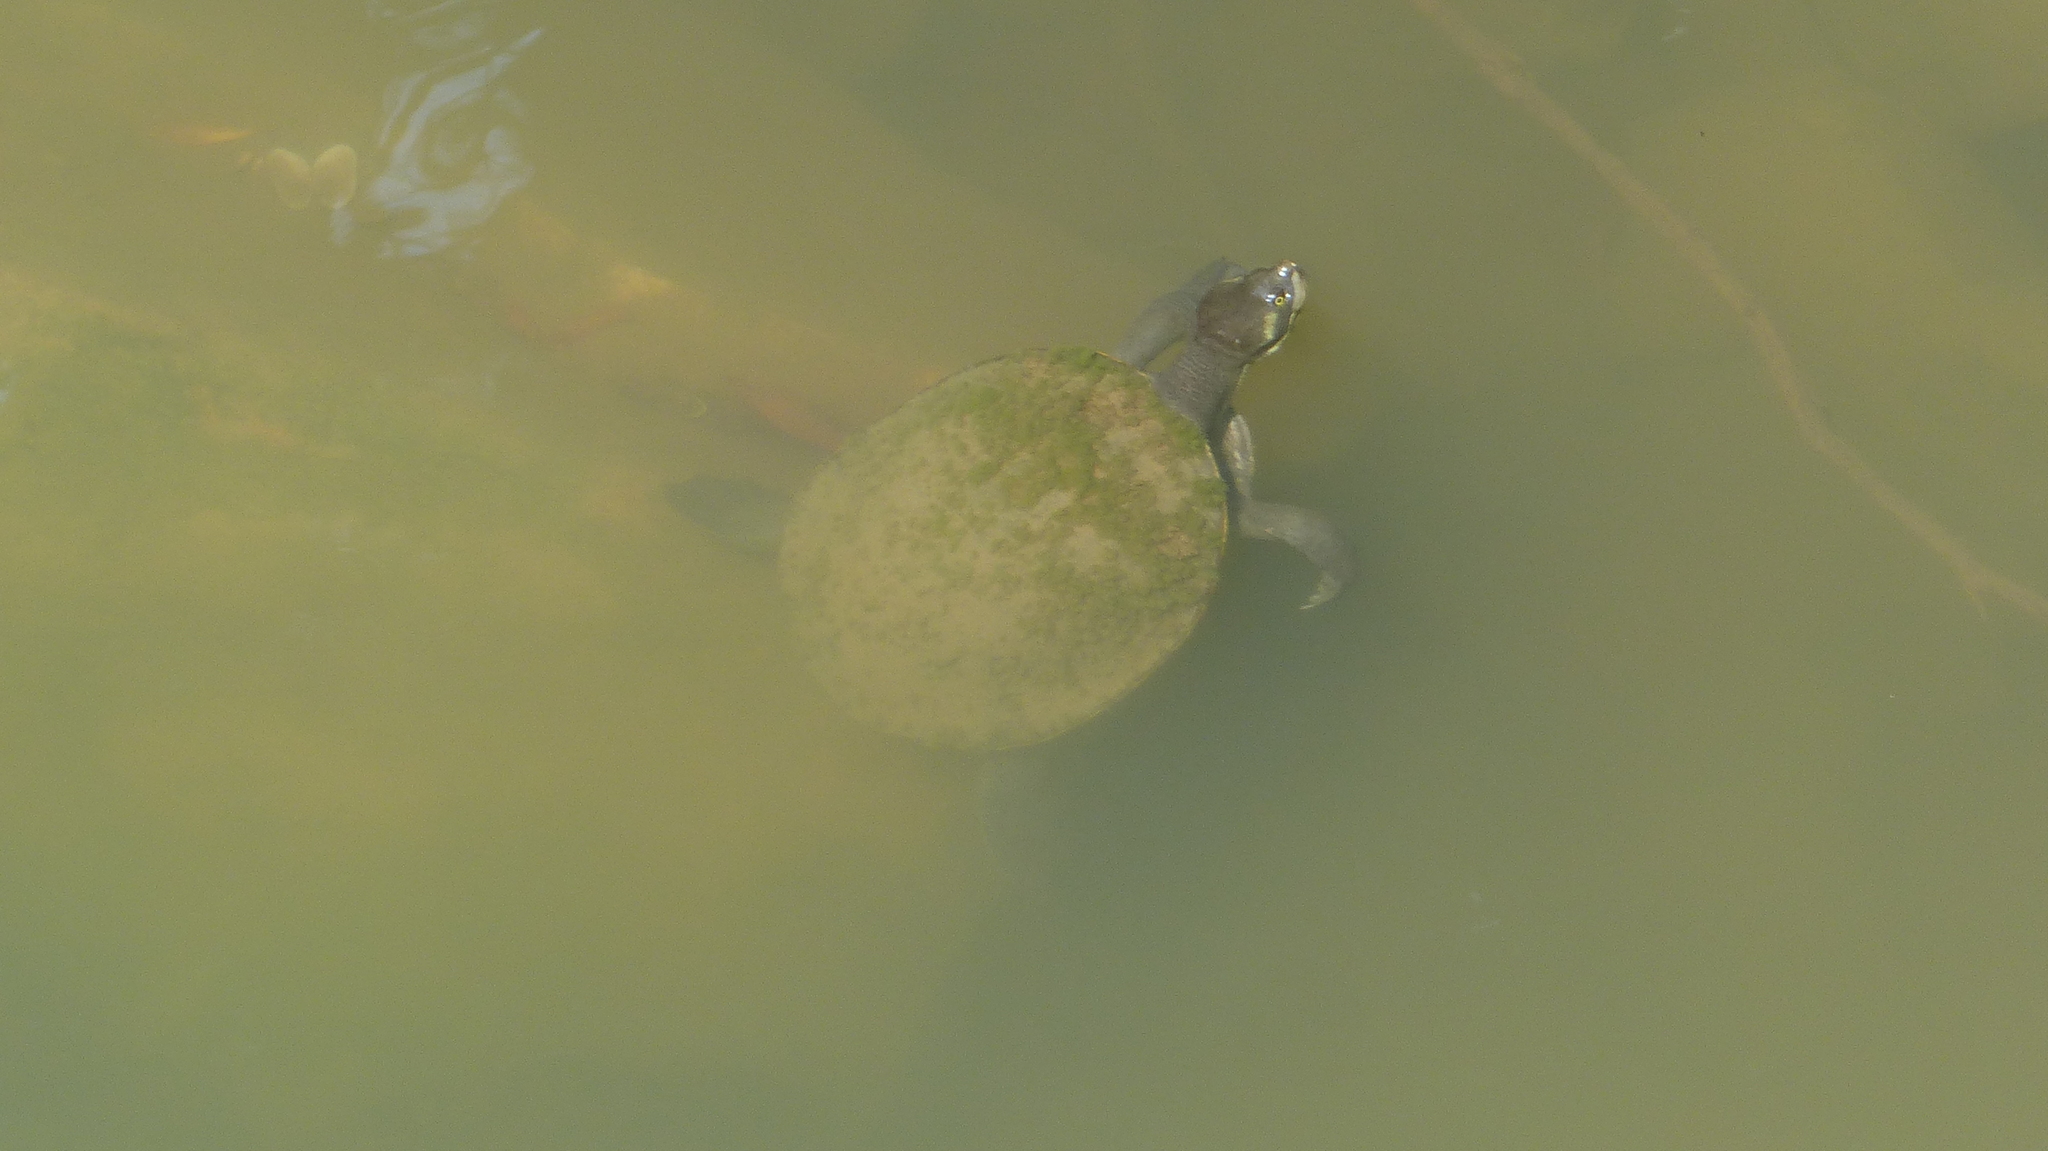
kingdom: Animalia
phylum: Chordata
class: Testudines
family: Chelidae
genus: Emydura
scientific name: Emydura macquarii
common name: Murray river turtle
